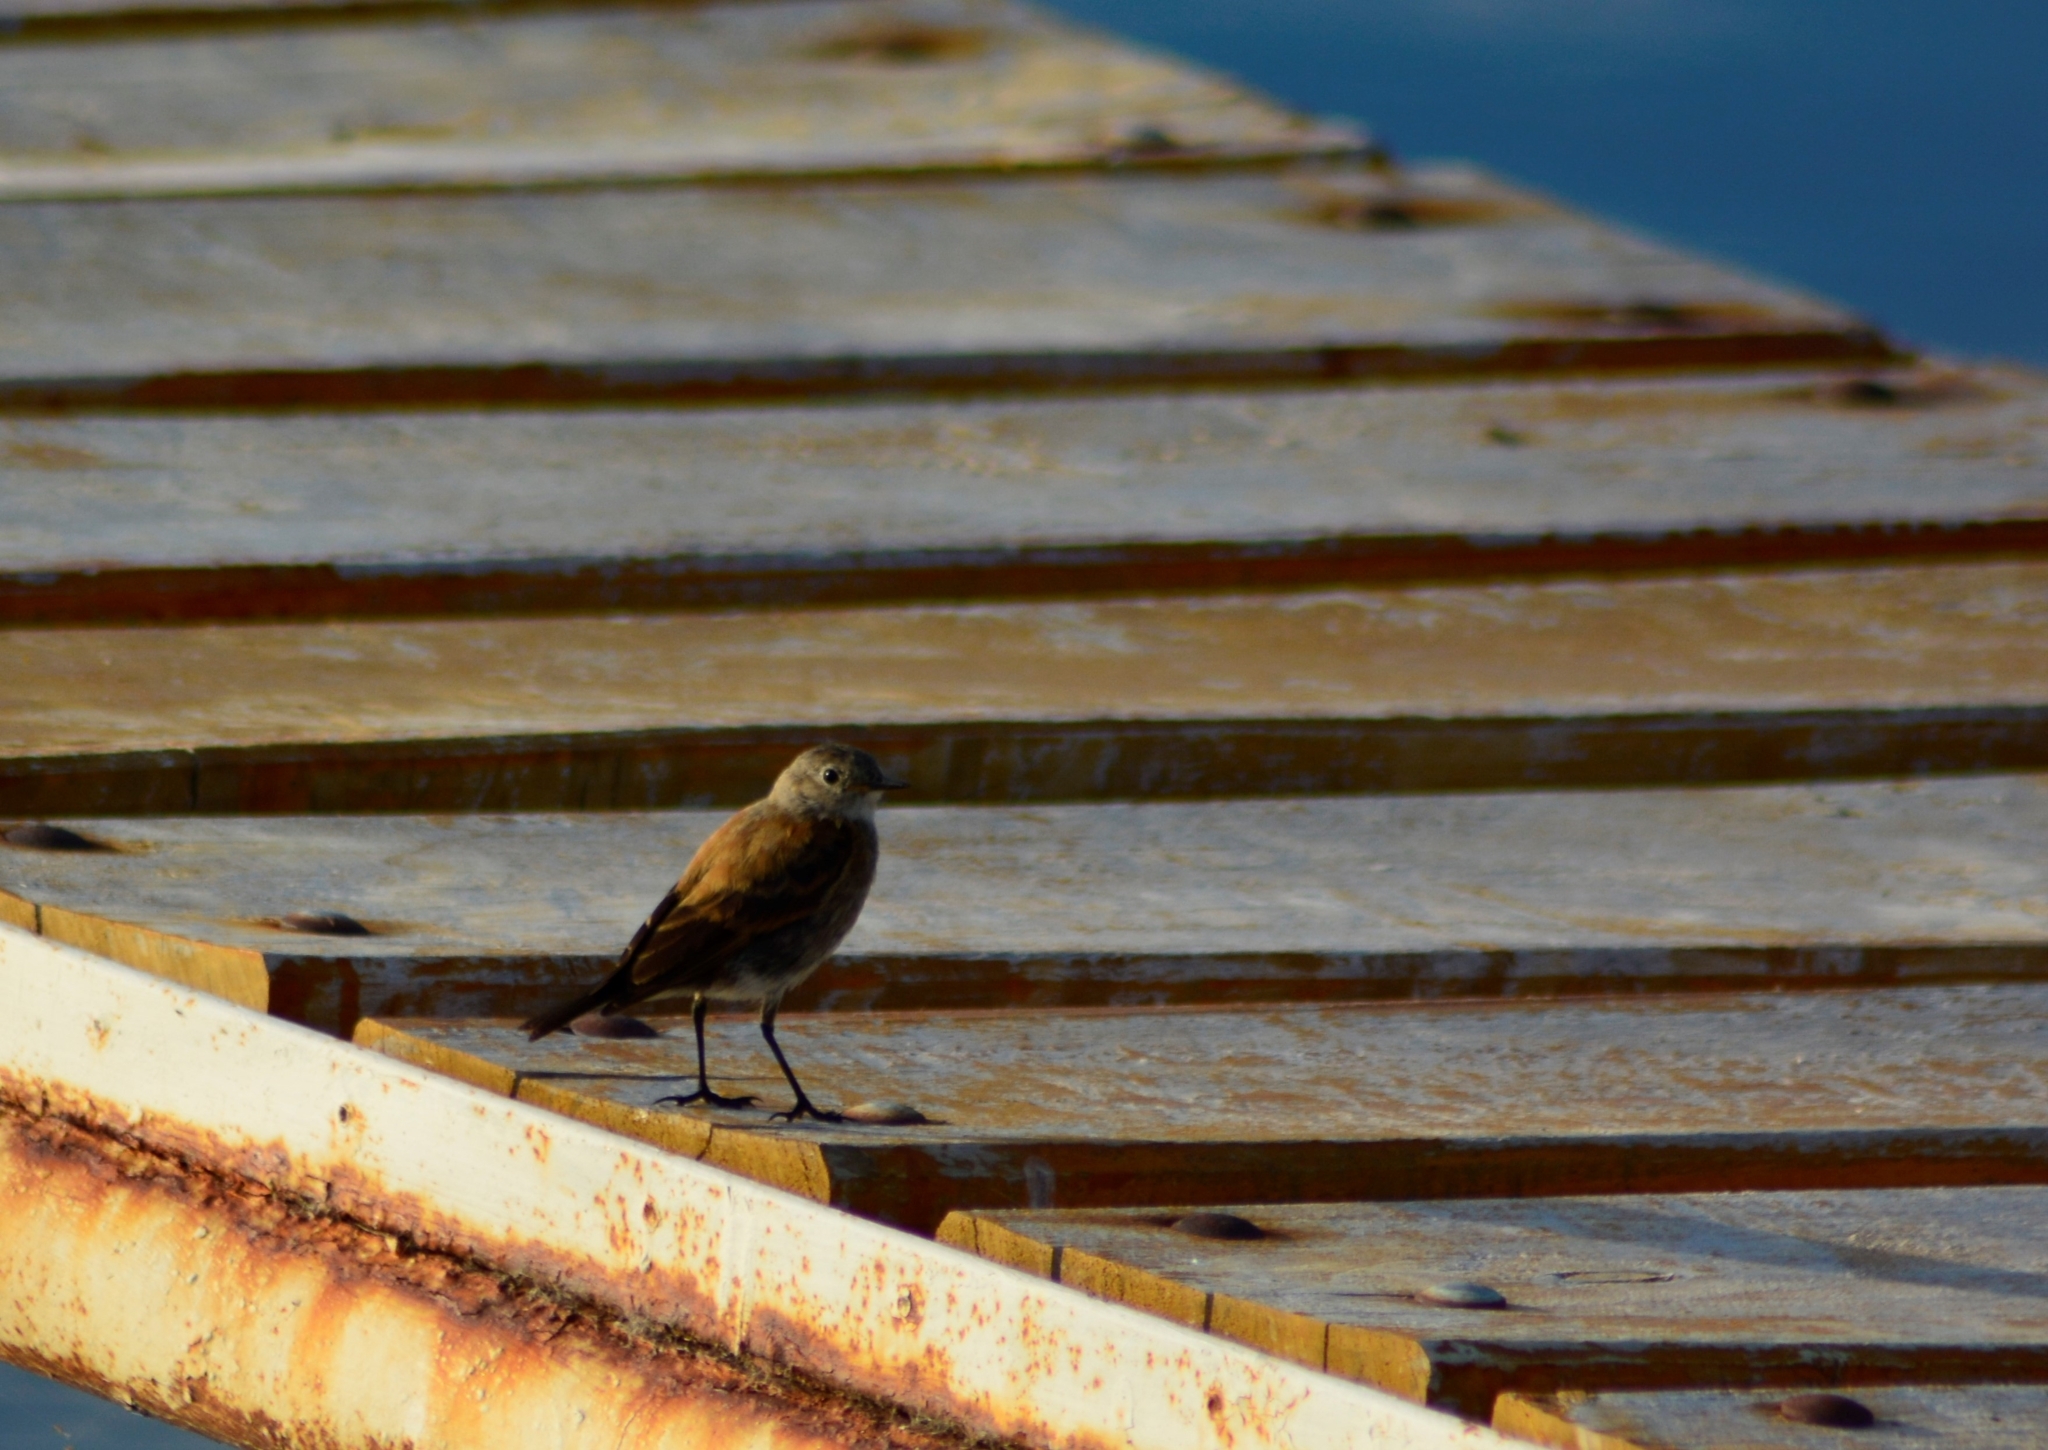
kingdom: Animalia
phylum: Chordata
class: Aves
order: Passeriformes
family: Tyrannidae
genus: Lessonia
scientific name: Lessonia rufa
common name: Austral negrito
